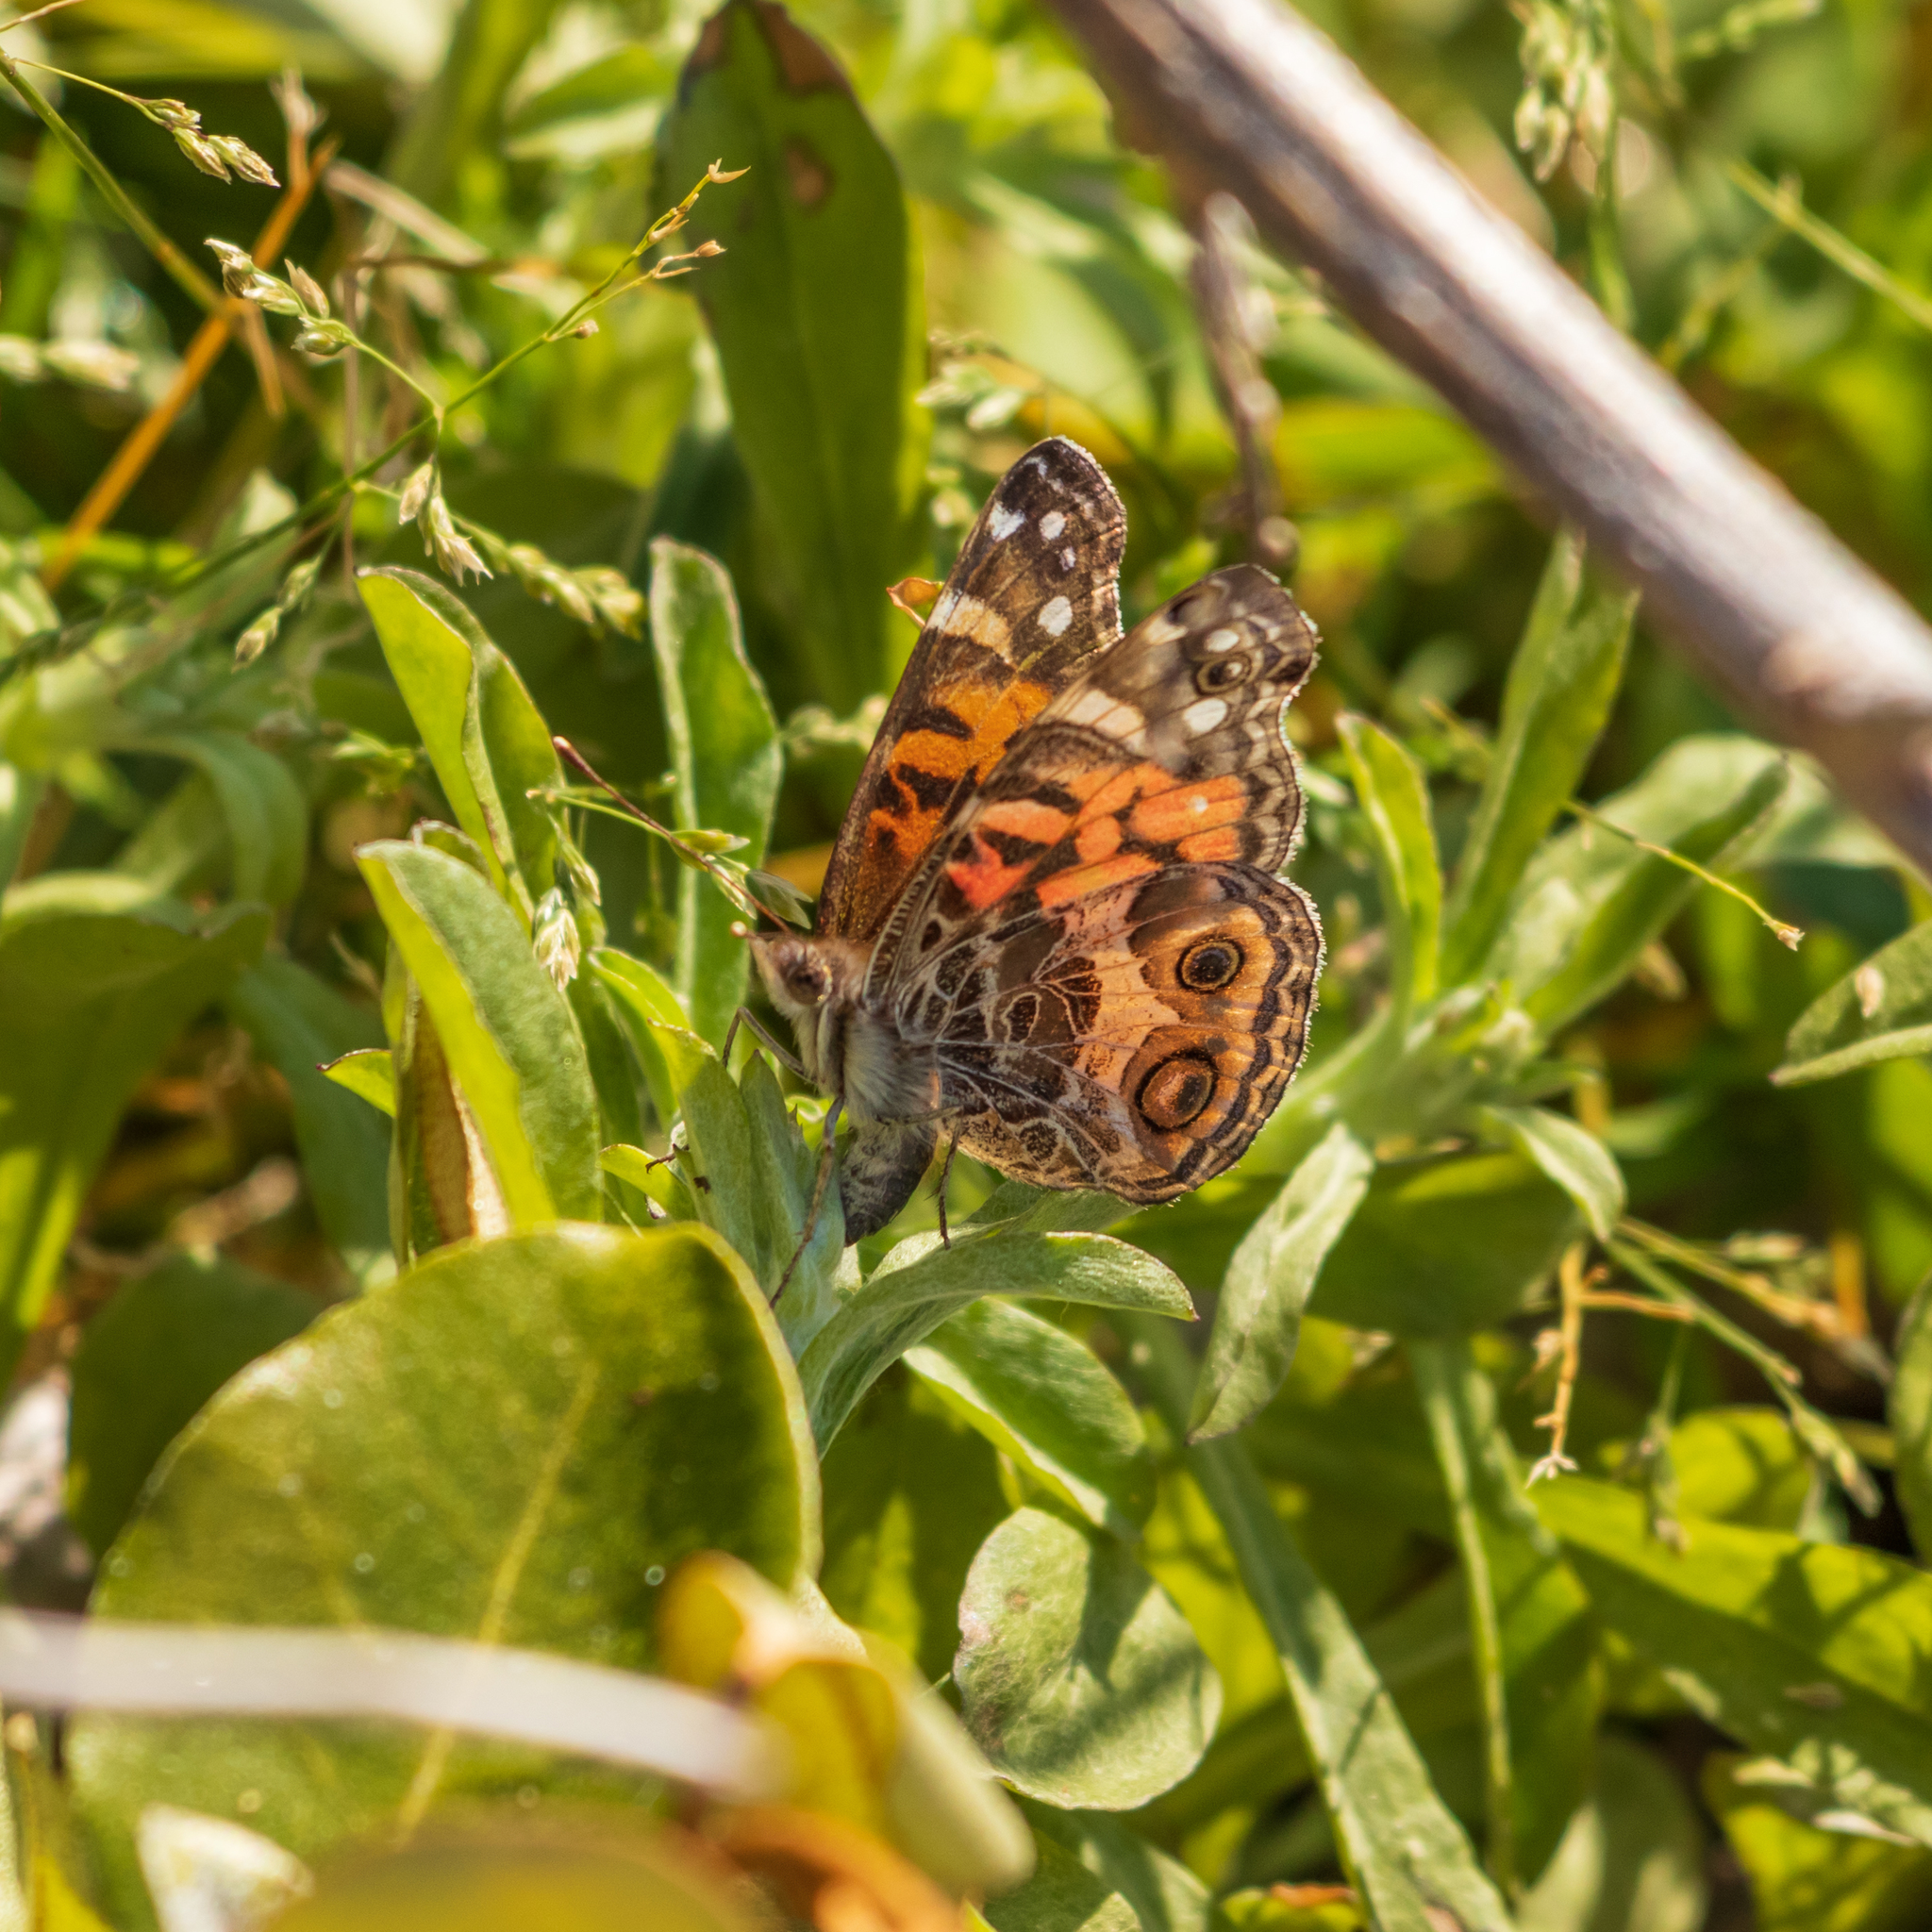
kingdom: Animalia
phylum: Arthropoda
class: Insecta
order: Lepidoptera
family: Nymphalidae
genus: Vanessa
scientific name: Vanessa virginiensis
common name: American lady
